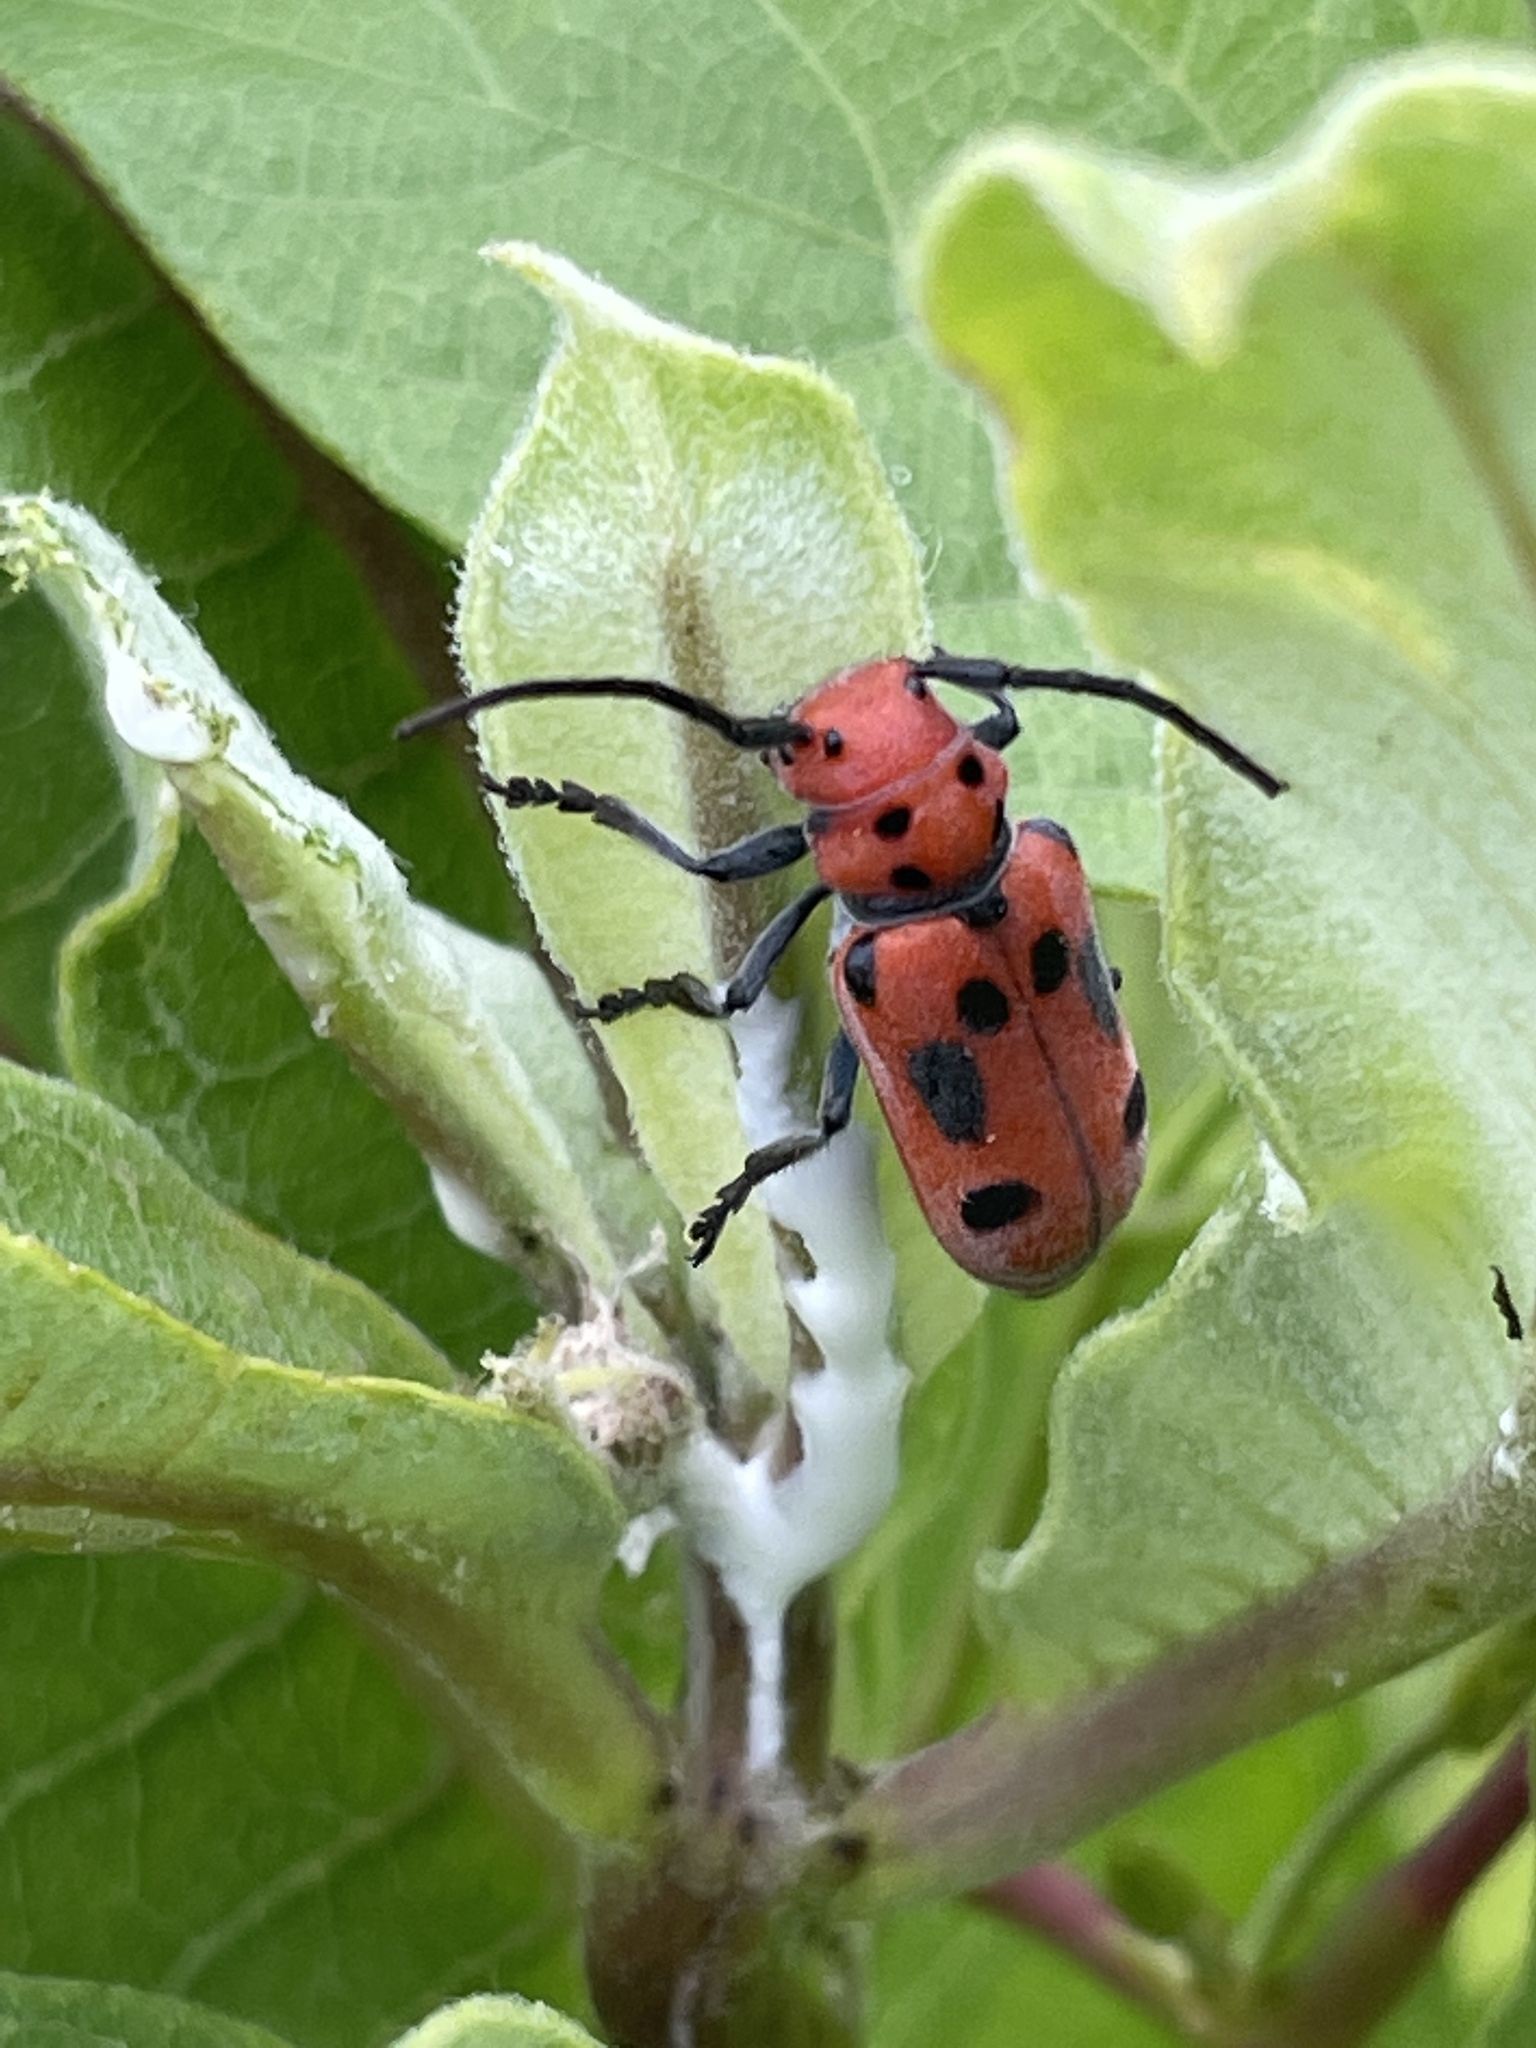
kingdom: Animalia
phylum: Arthropoda
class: Insecta
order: Coleoptera
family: Cerambycidae
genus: Tetraopes
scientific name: Tetraopes tetrophthalmus
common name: Red milkweed beetle
